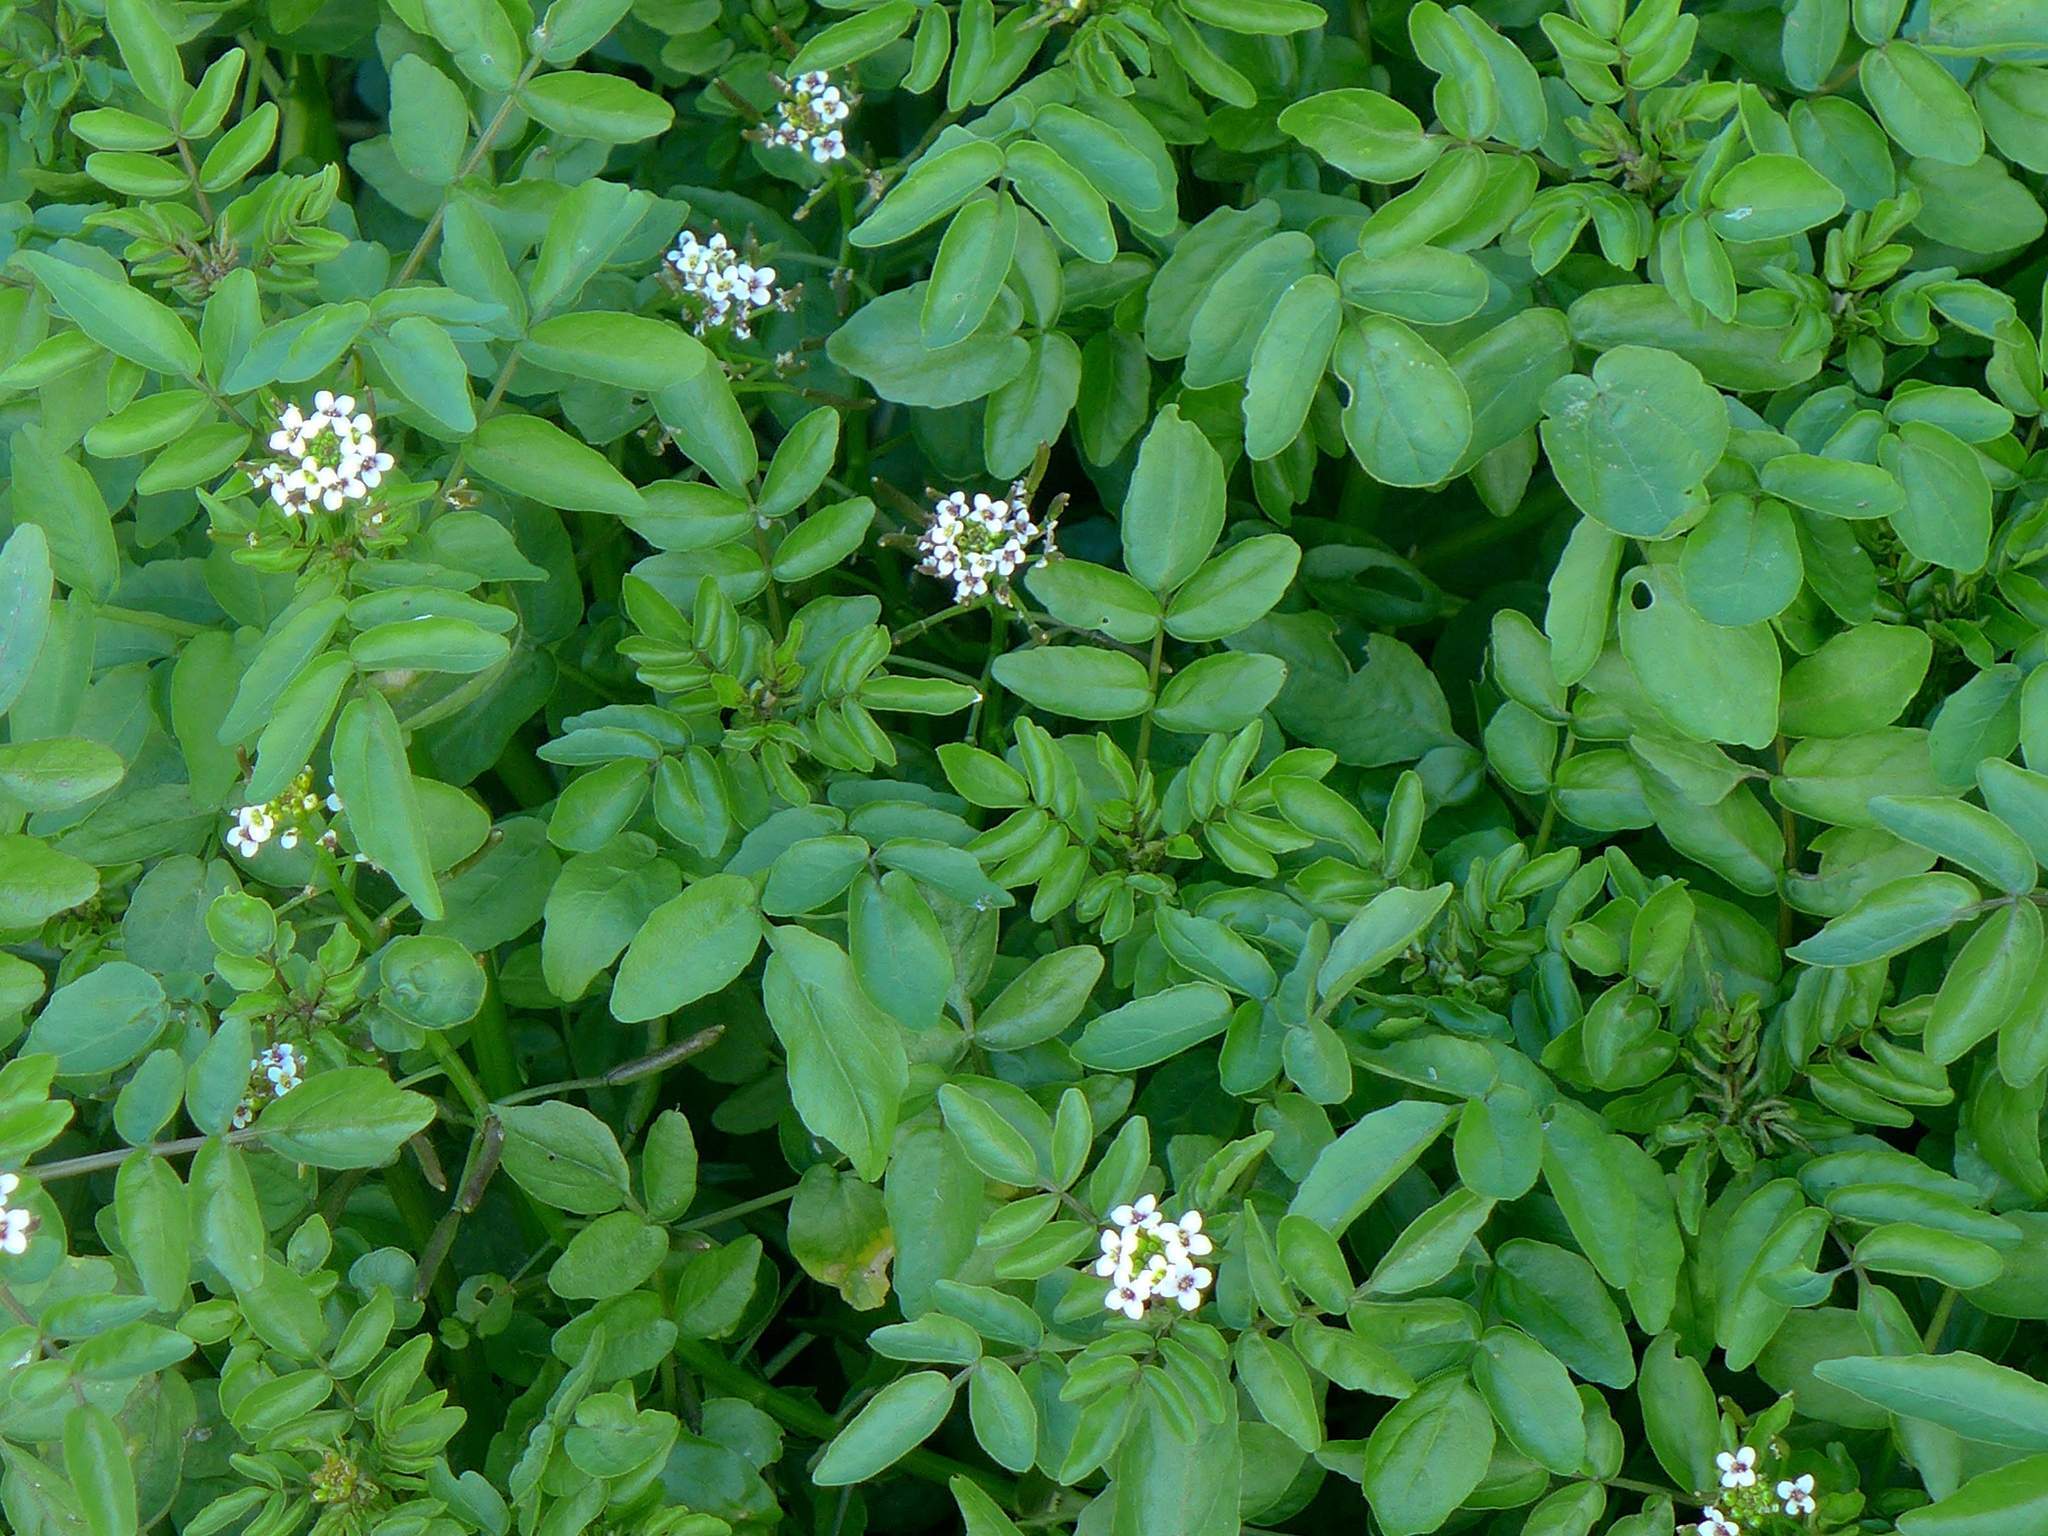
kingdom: Plantae
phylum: Tracheophyta
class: Magnoliopsida
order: Brassicales
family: Brassicaceae
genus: Nasturtium
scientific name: Nasturtium officinale
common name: Watercress
